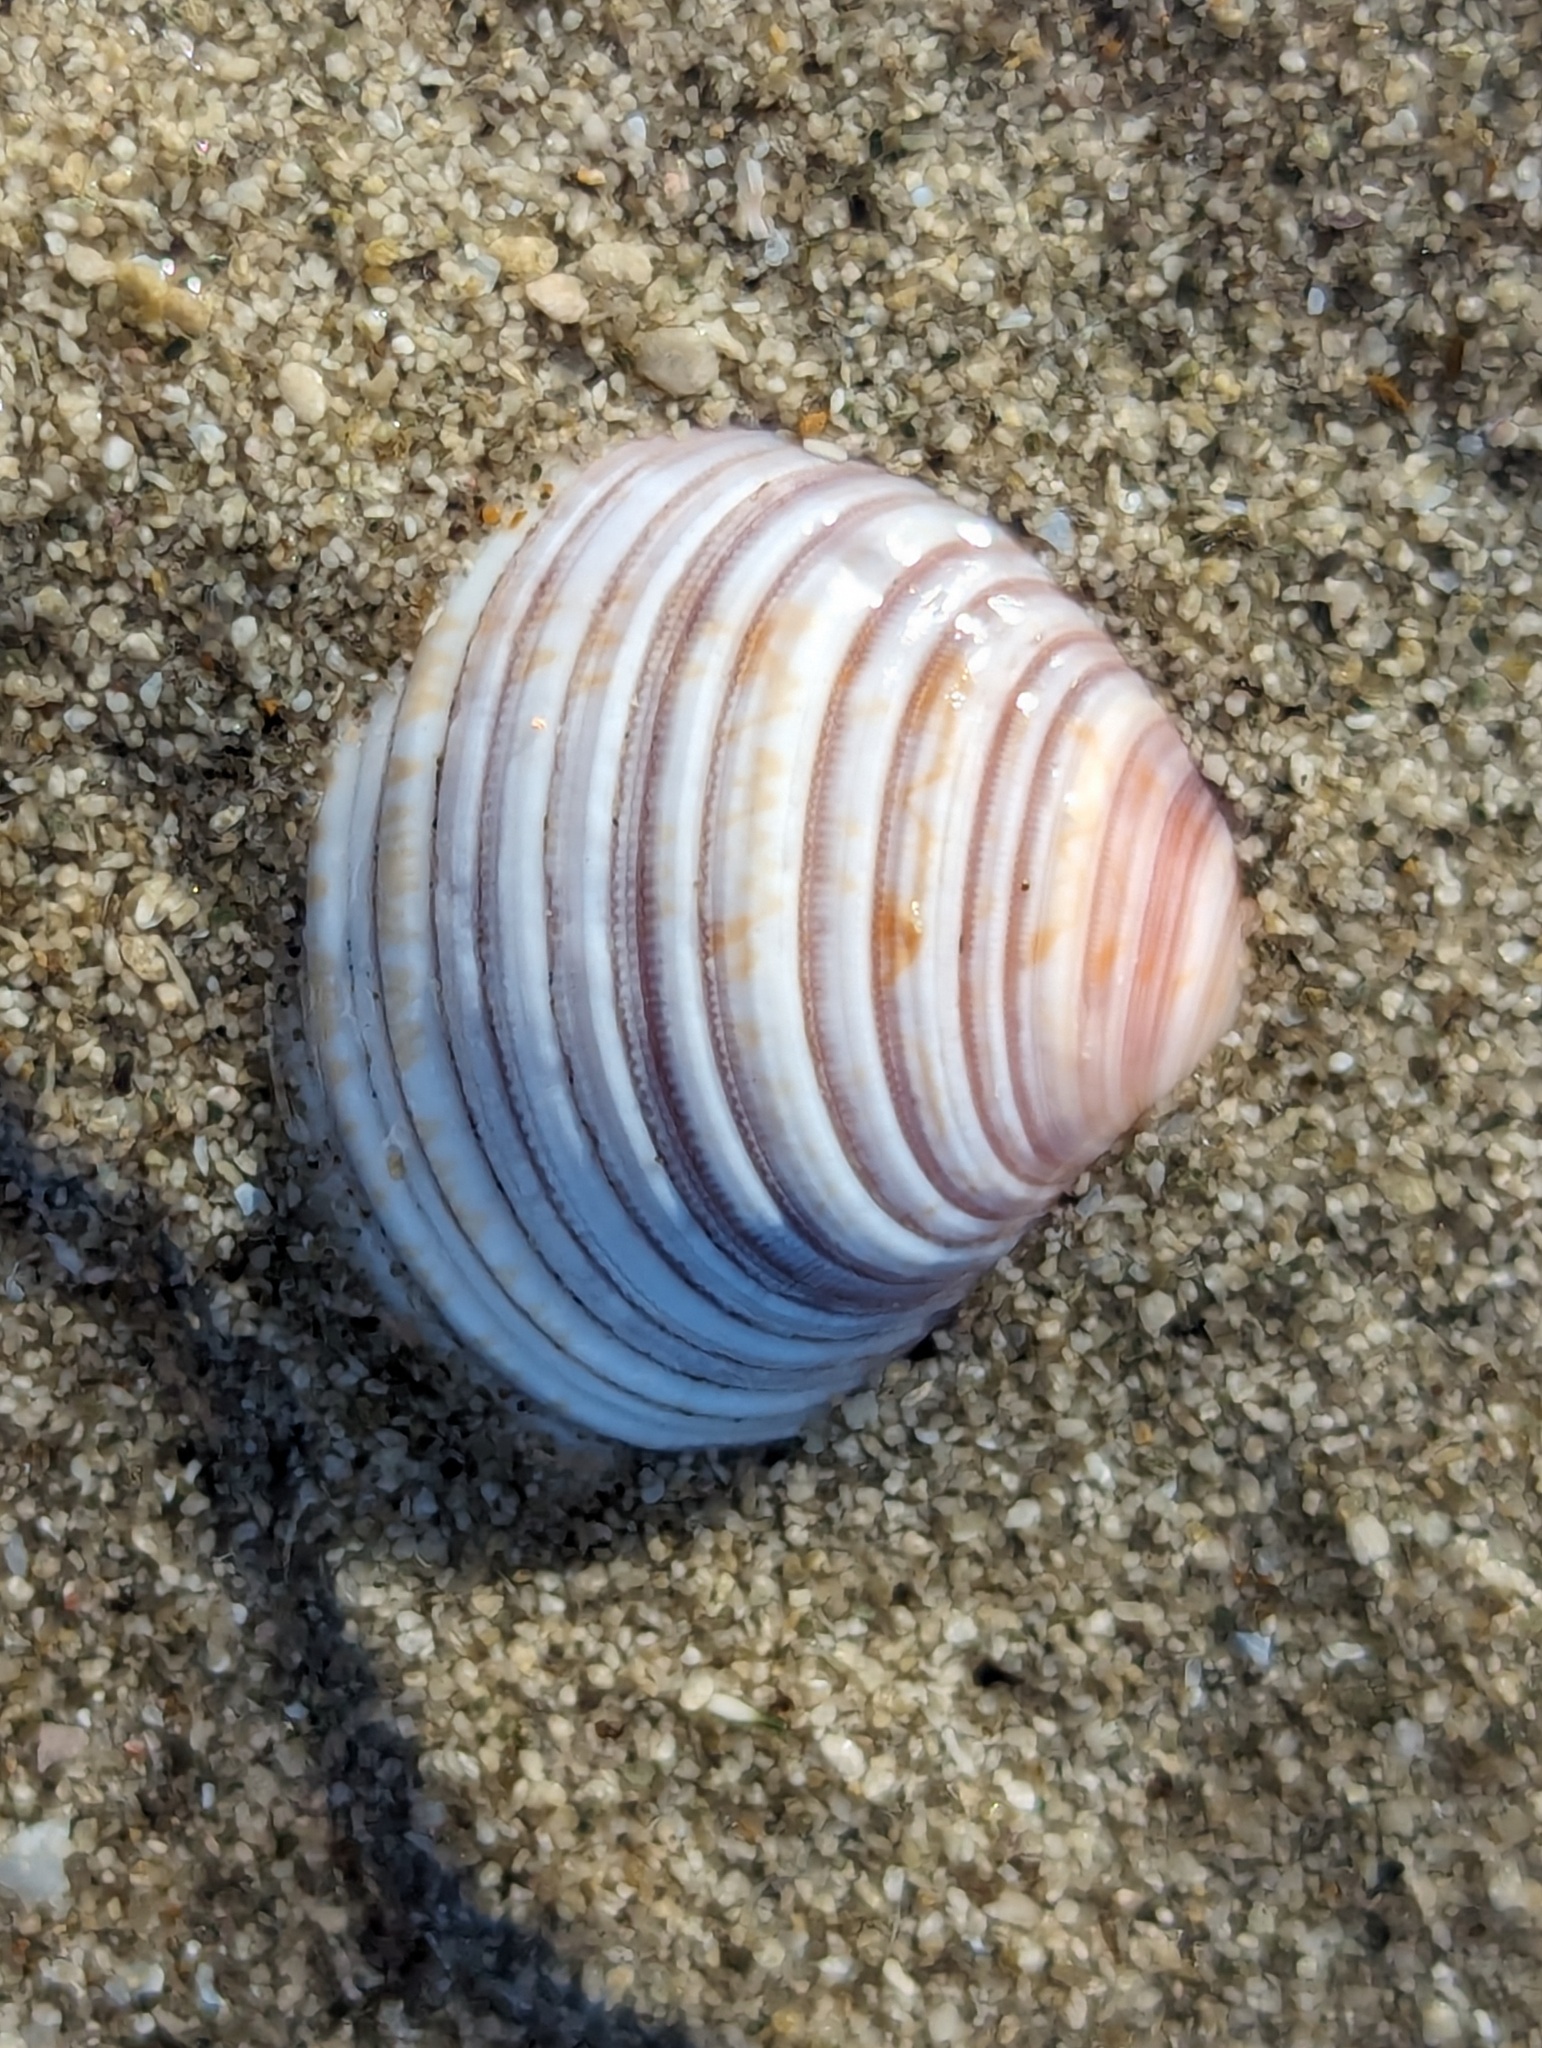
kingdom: Animalia
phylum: Mollusca
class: Bivalvia
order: Venerida
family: Veneridae
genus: Tawera
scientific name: Tawera spissa
